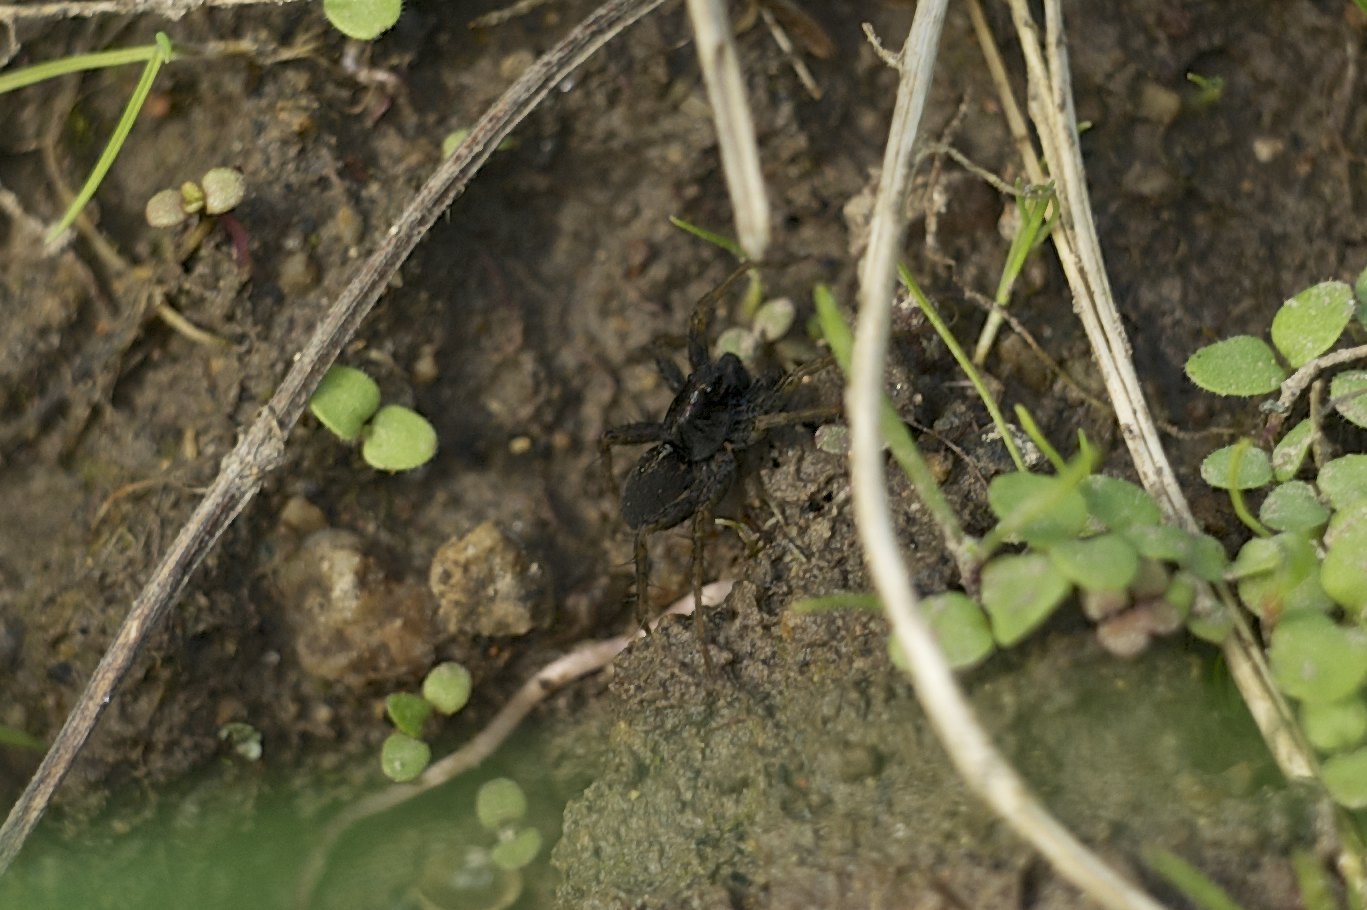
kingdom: Animalia
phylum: Arthropoda
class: Arachnida
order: Araneae
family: Lycosidae
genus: Pardosa
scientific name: Pardosa
